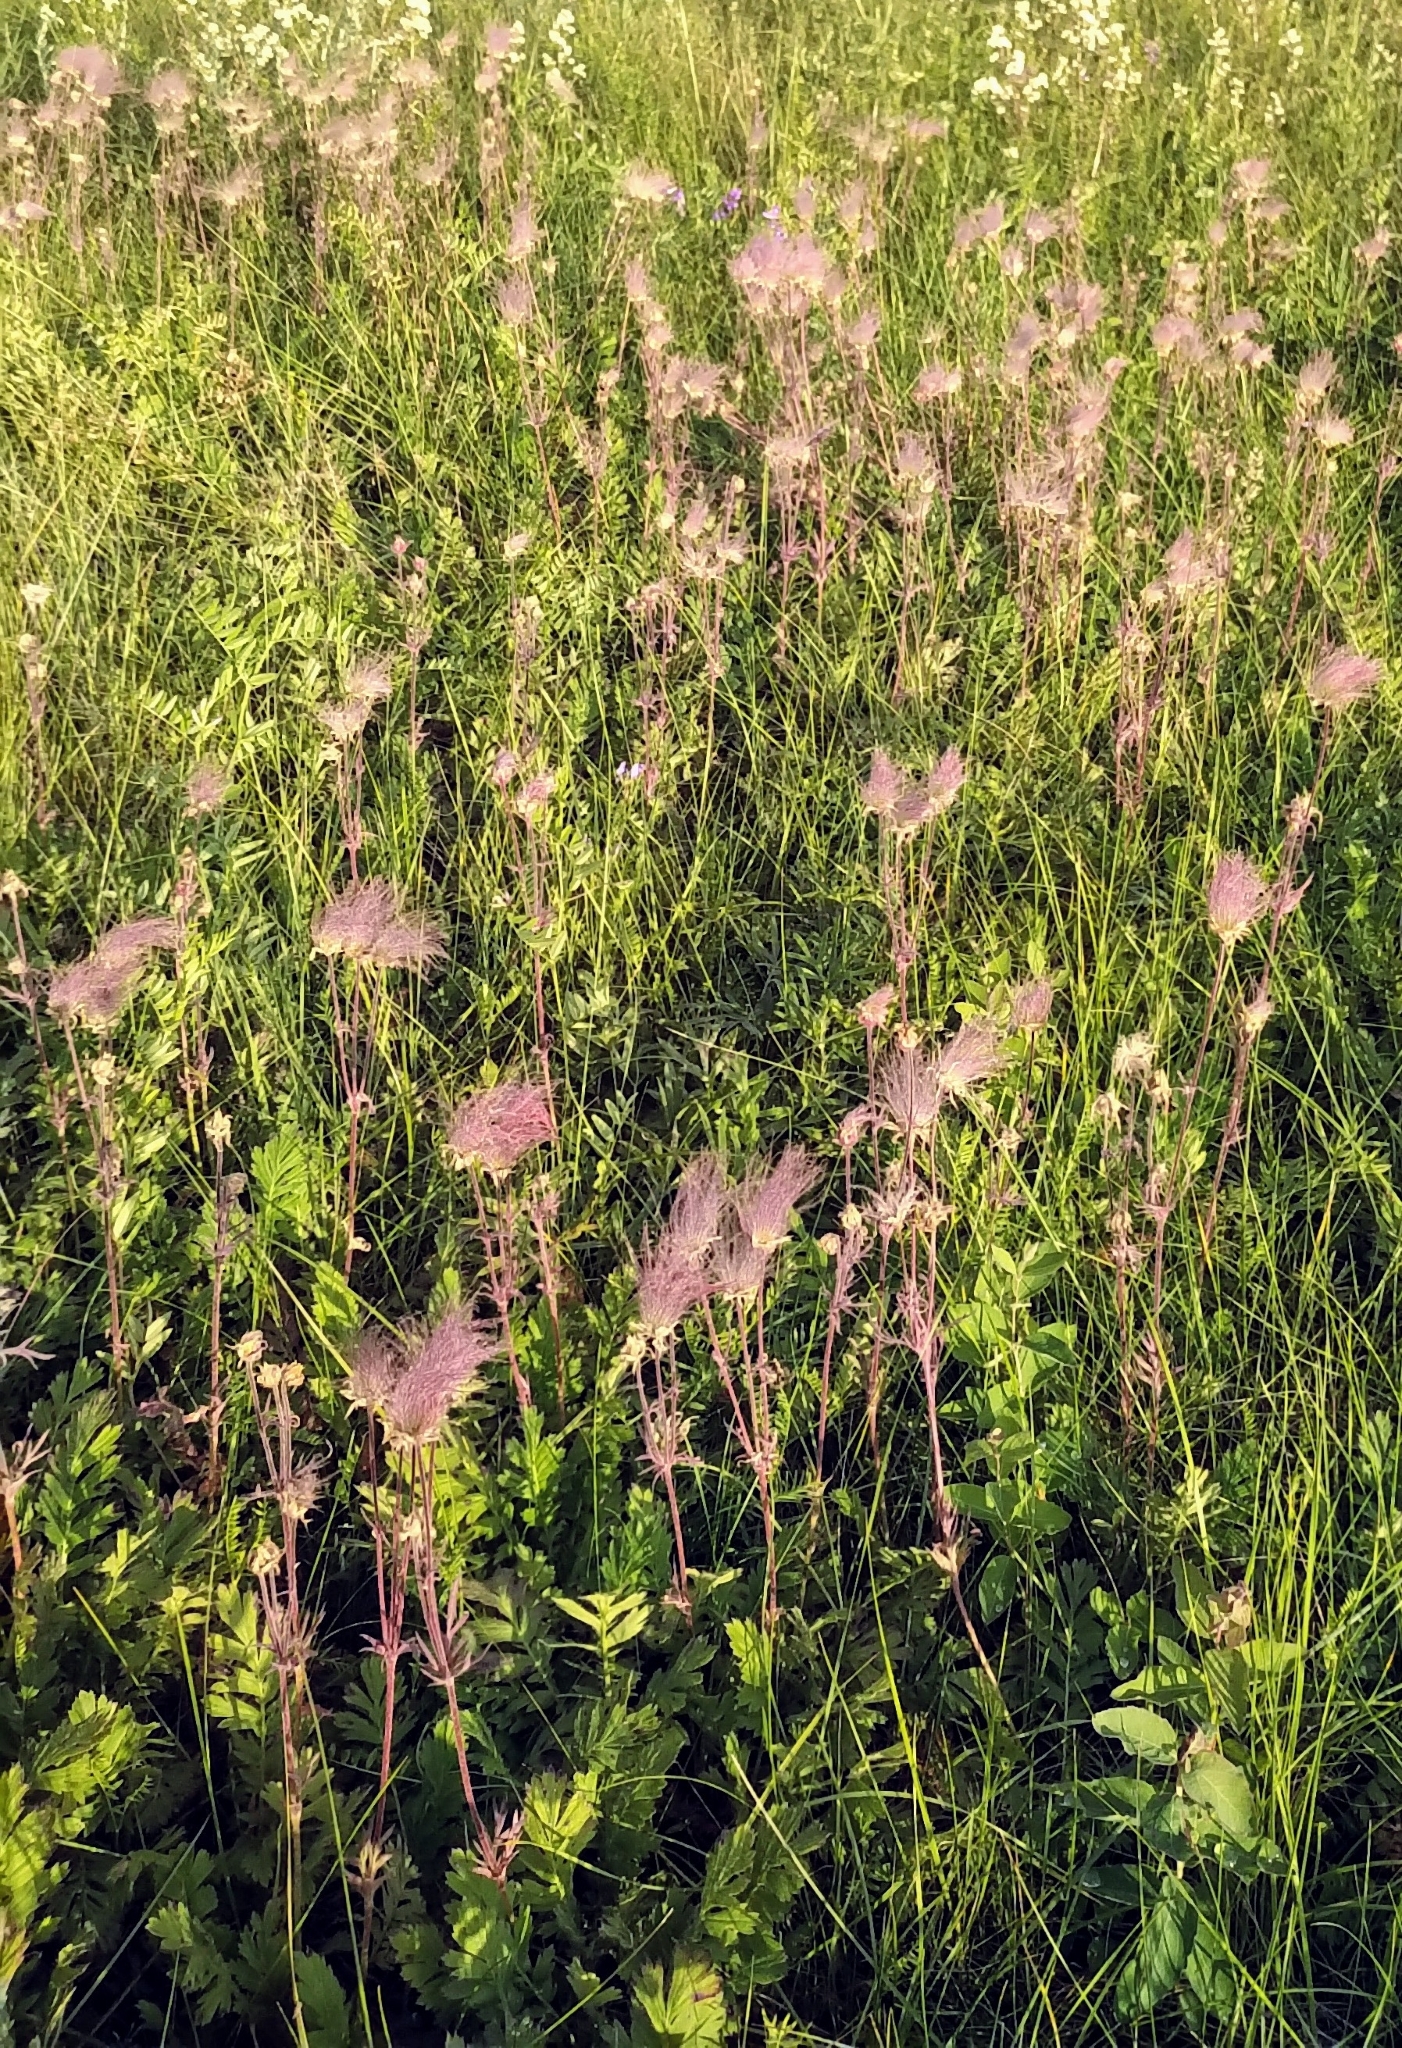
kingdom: Plantae
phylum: Tracheophyta
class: Magnoliopsida
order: Rosales
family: Rosaceae
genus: Geum
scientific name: Geum triflorum
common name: Old man's whiskers
